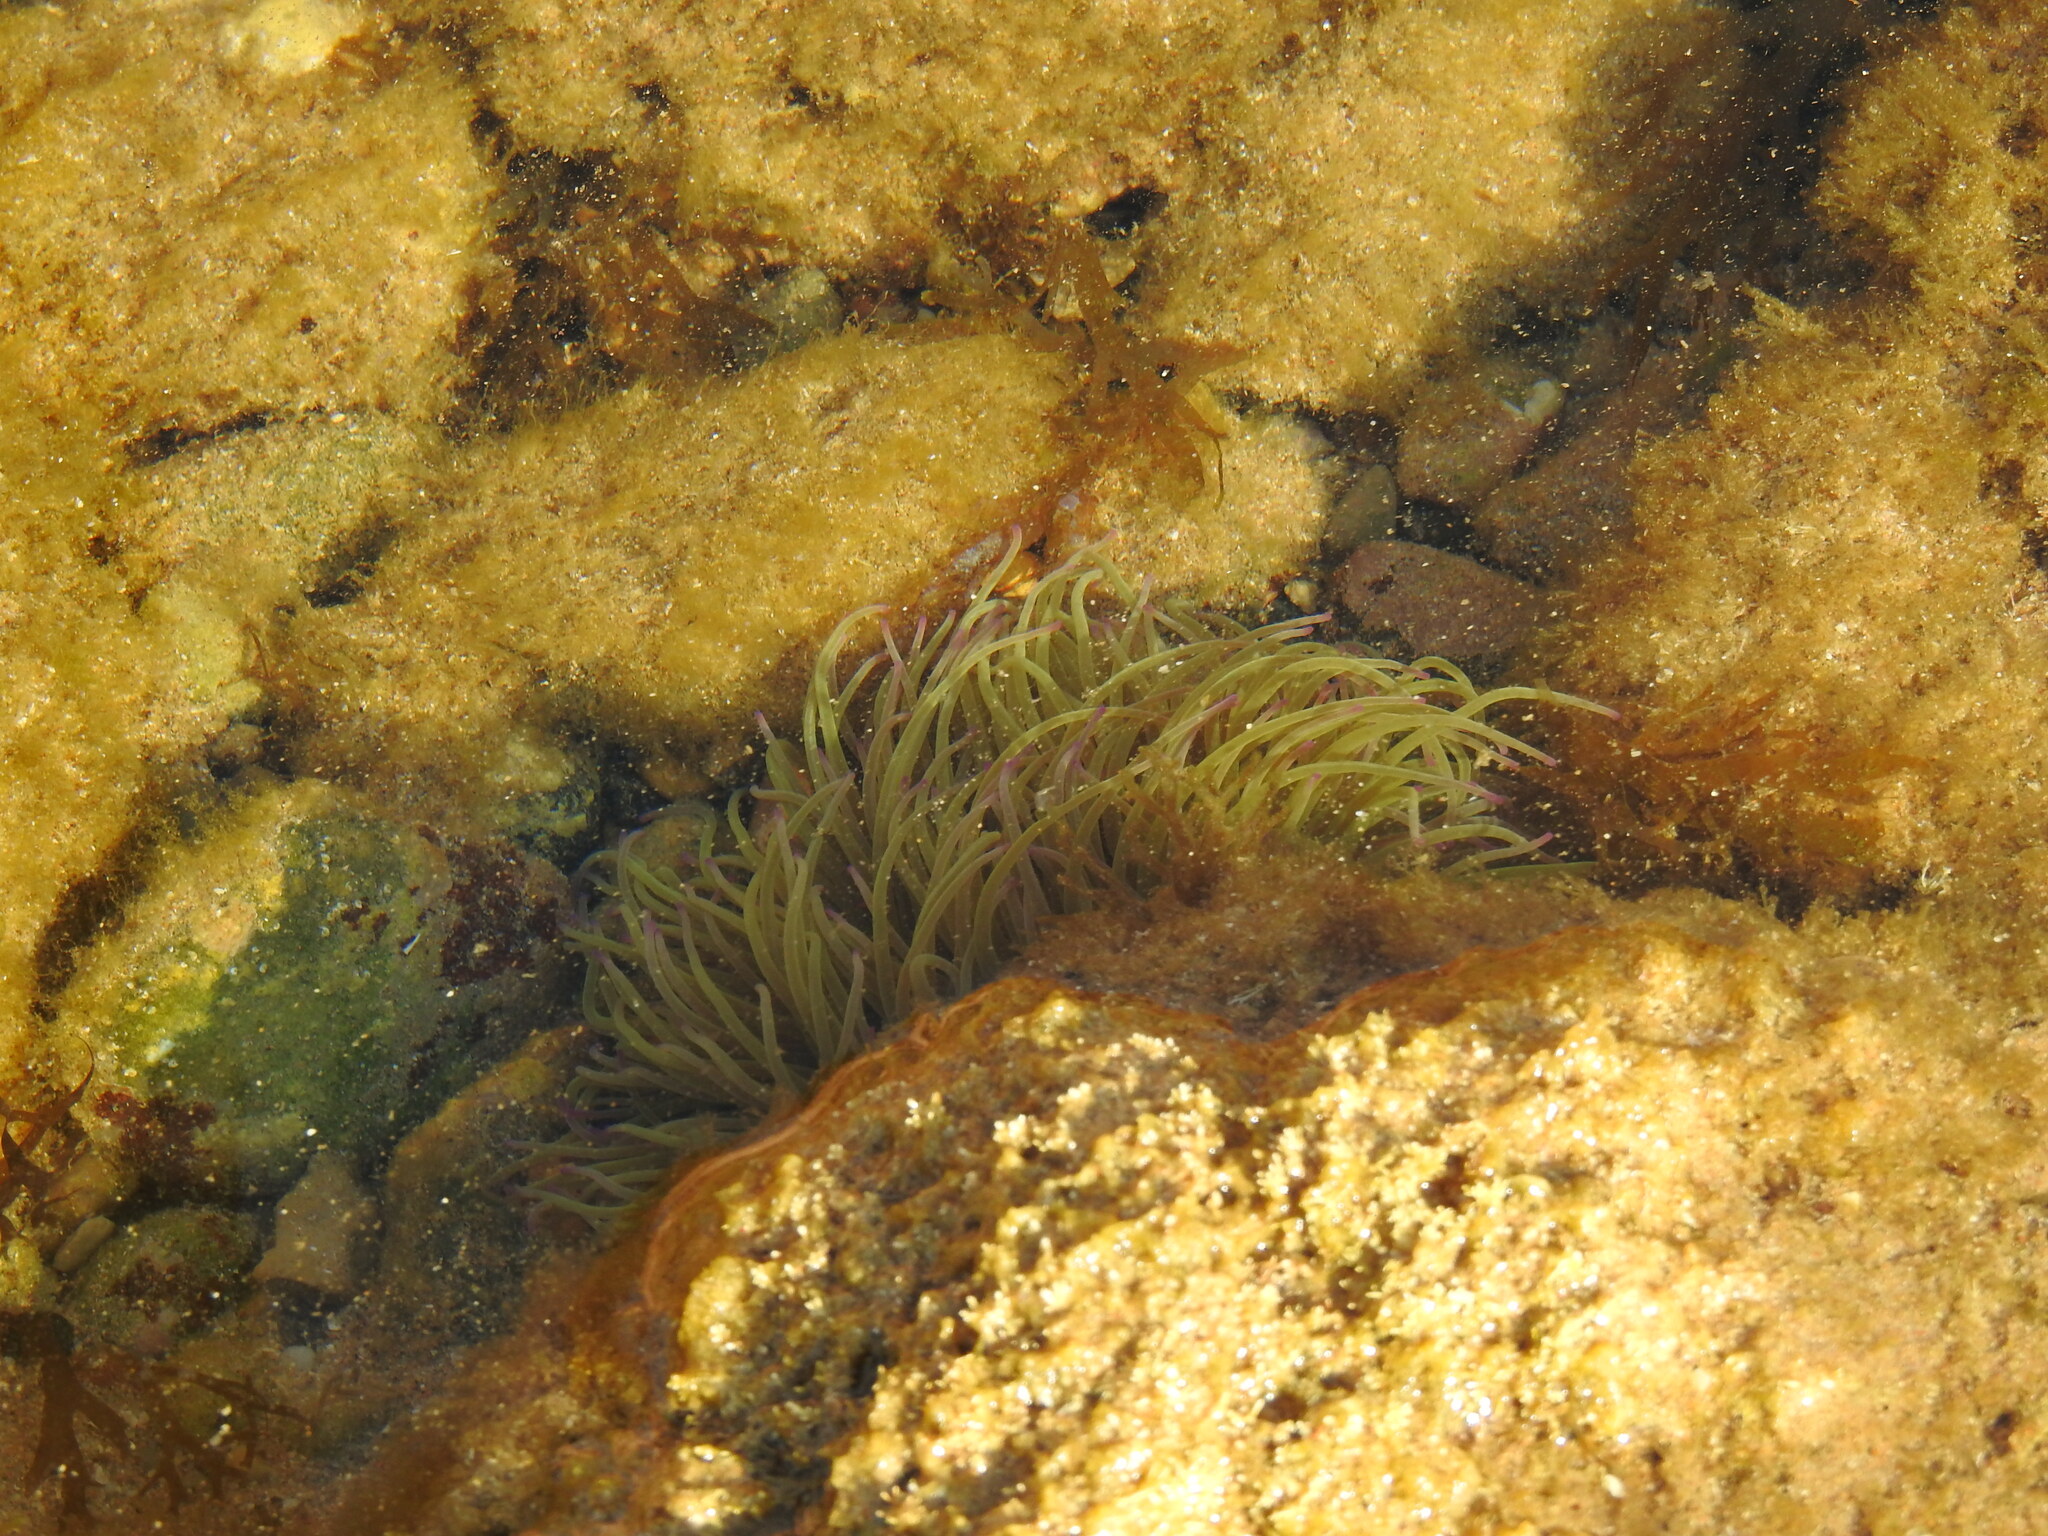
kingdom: Animalia
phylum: Cnidaria
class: Anthozoa
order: Actiniaria
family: Actiniidae
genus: Anemonia
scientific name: Anemonia viridis
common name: Snakelocks anemone
